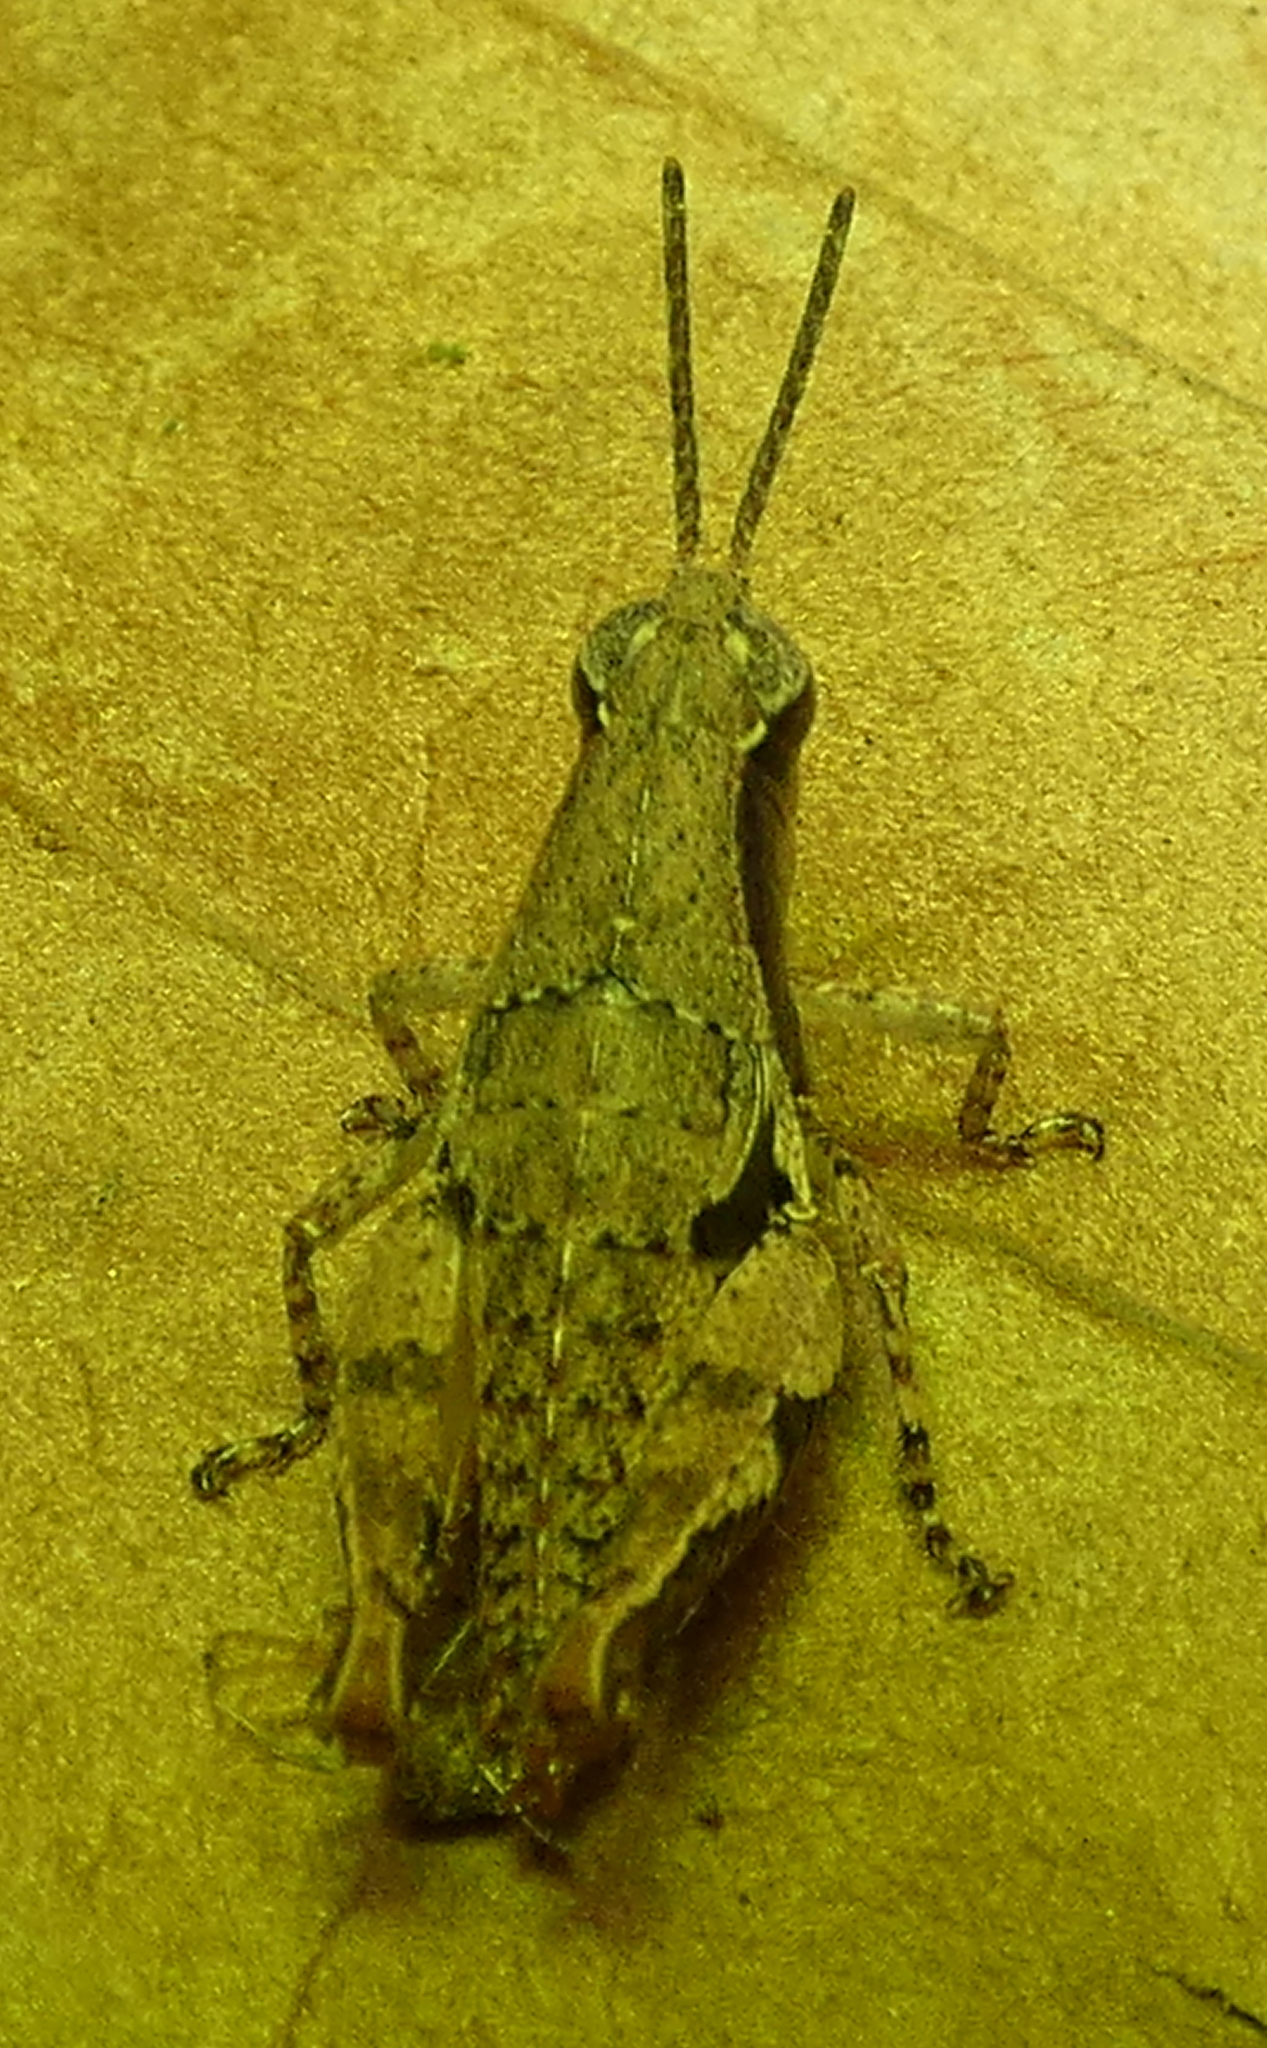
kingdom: Animalia
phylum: Arthropoda
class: Insecta
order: Orthoptera
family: Acrididae
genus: Eujivarus
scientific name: Eujivarus meridionalis
